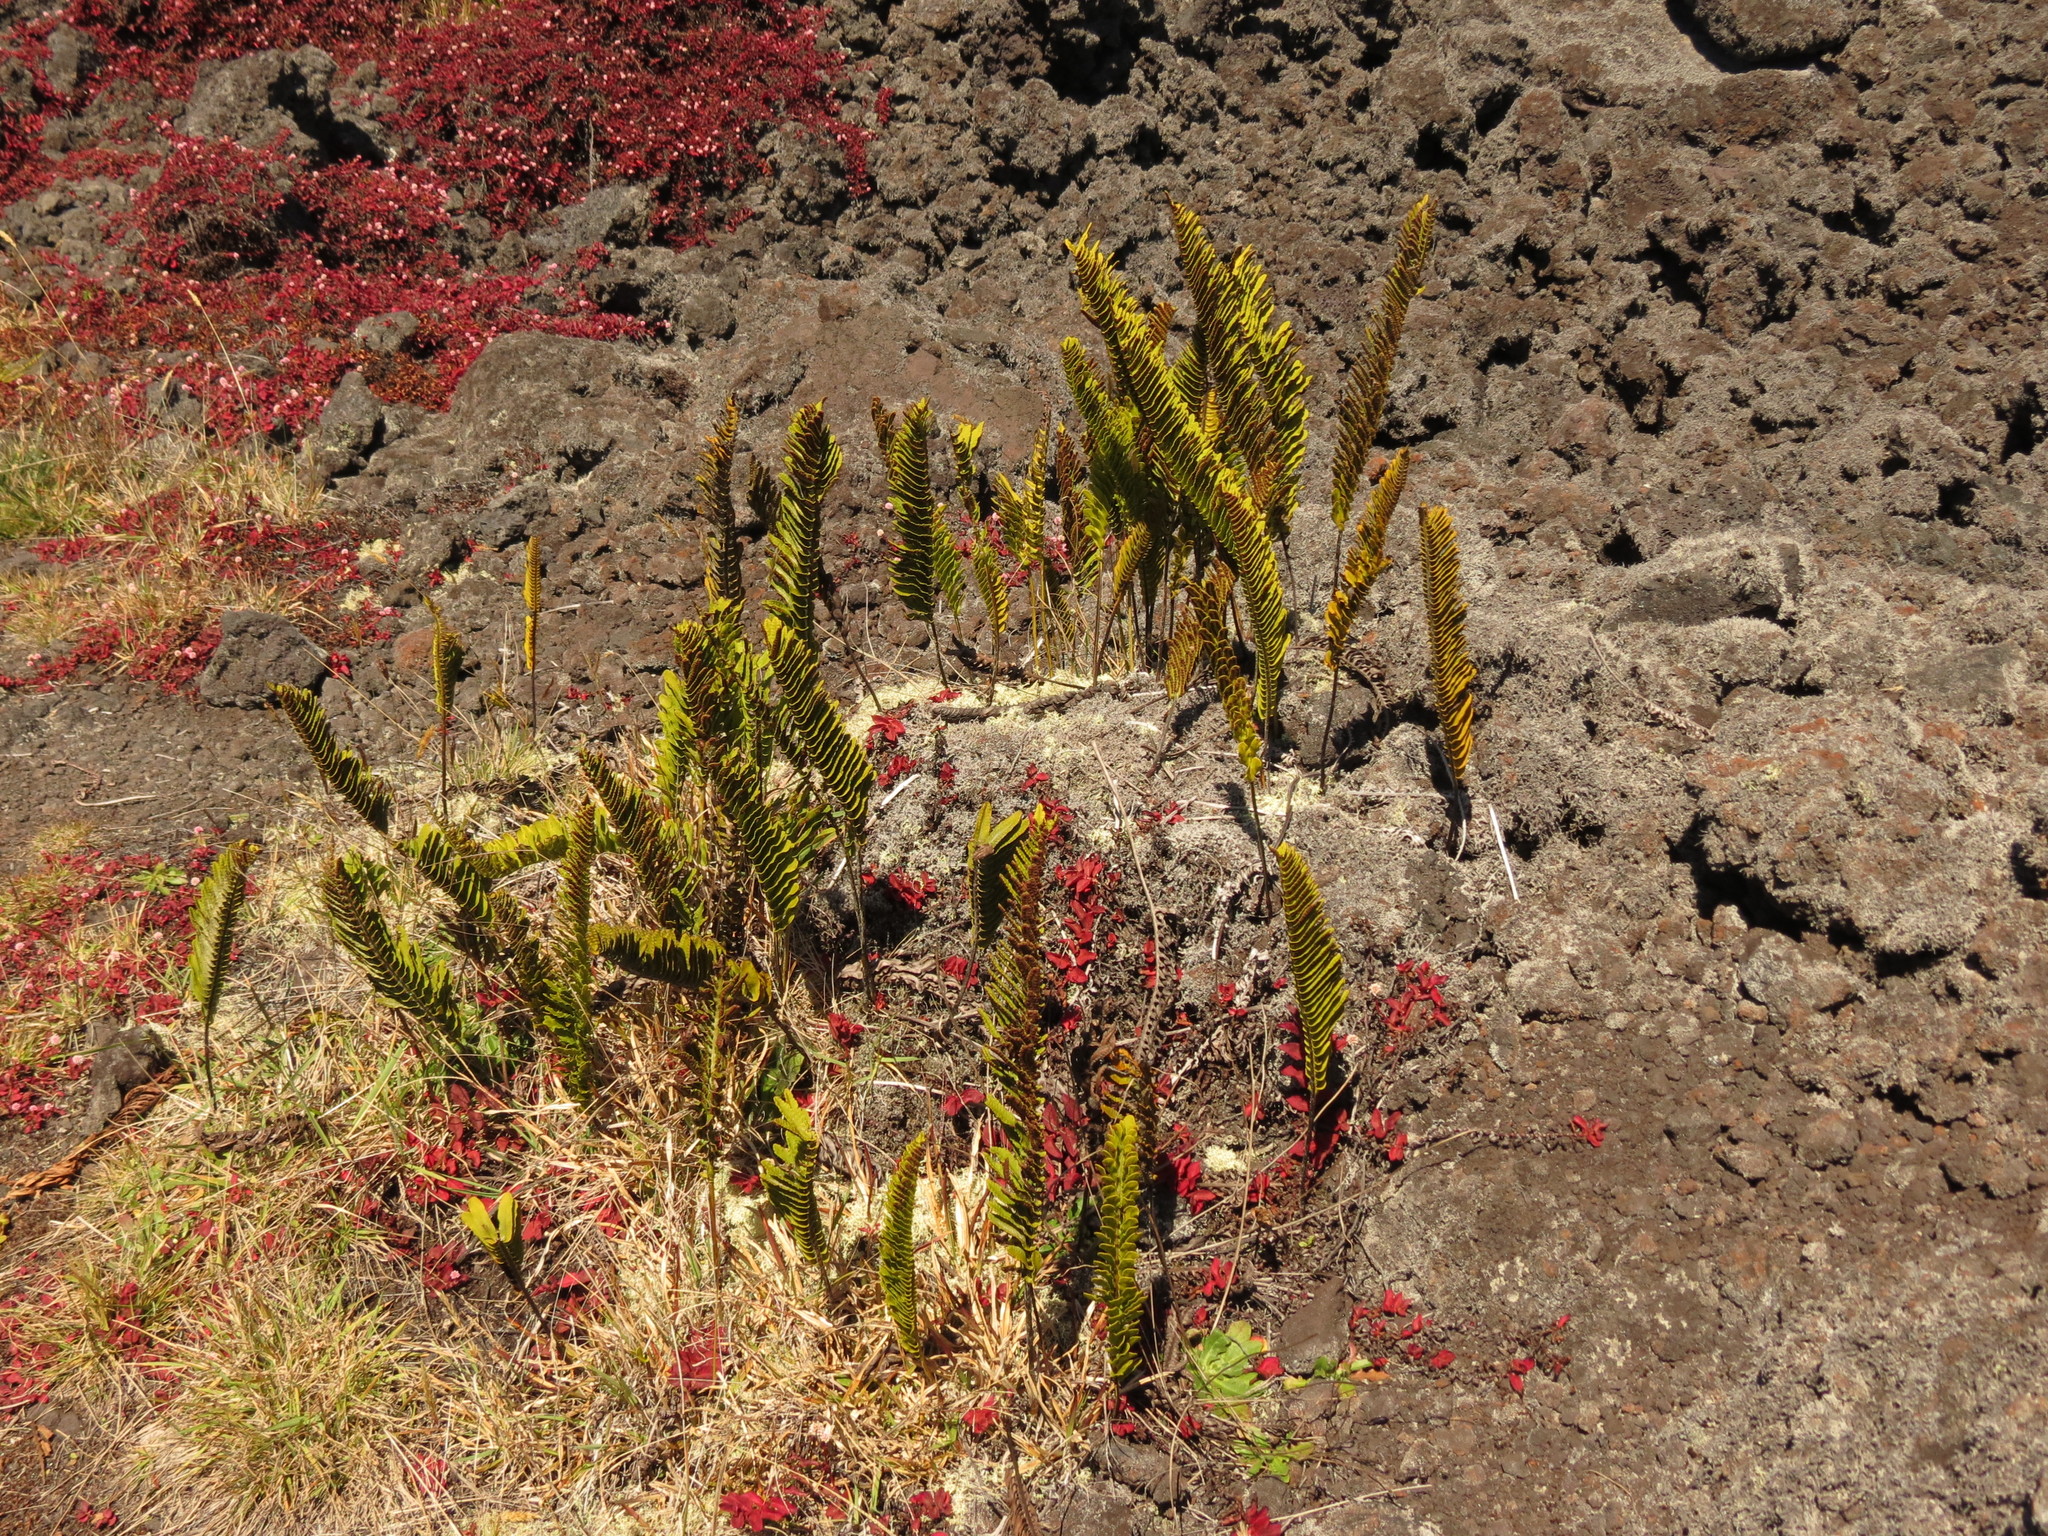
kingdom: Plantae
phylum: Tracheophyta
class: Polypodiopsida
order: Polypodiales
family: Polypodiaceae
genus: Polypodium
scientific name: Polypodium pellucidum
